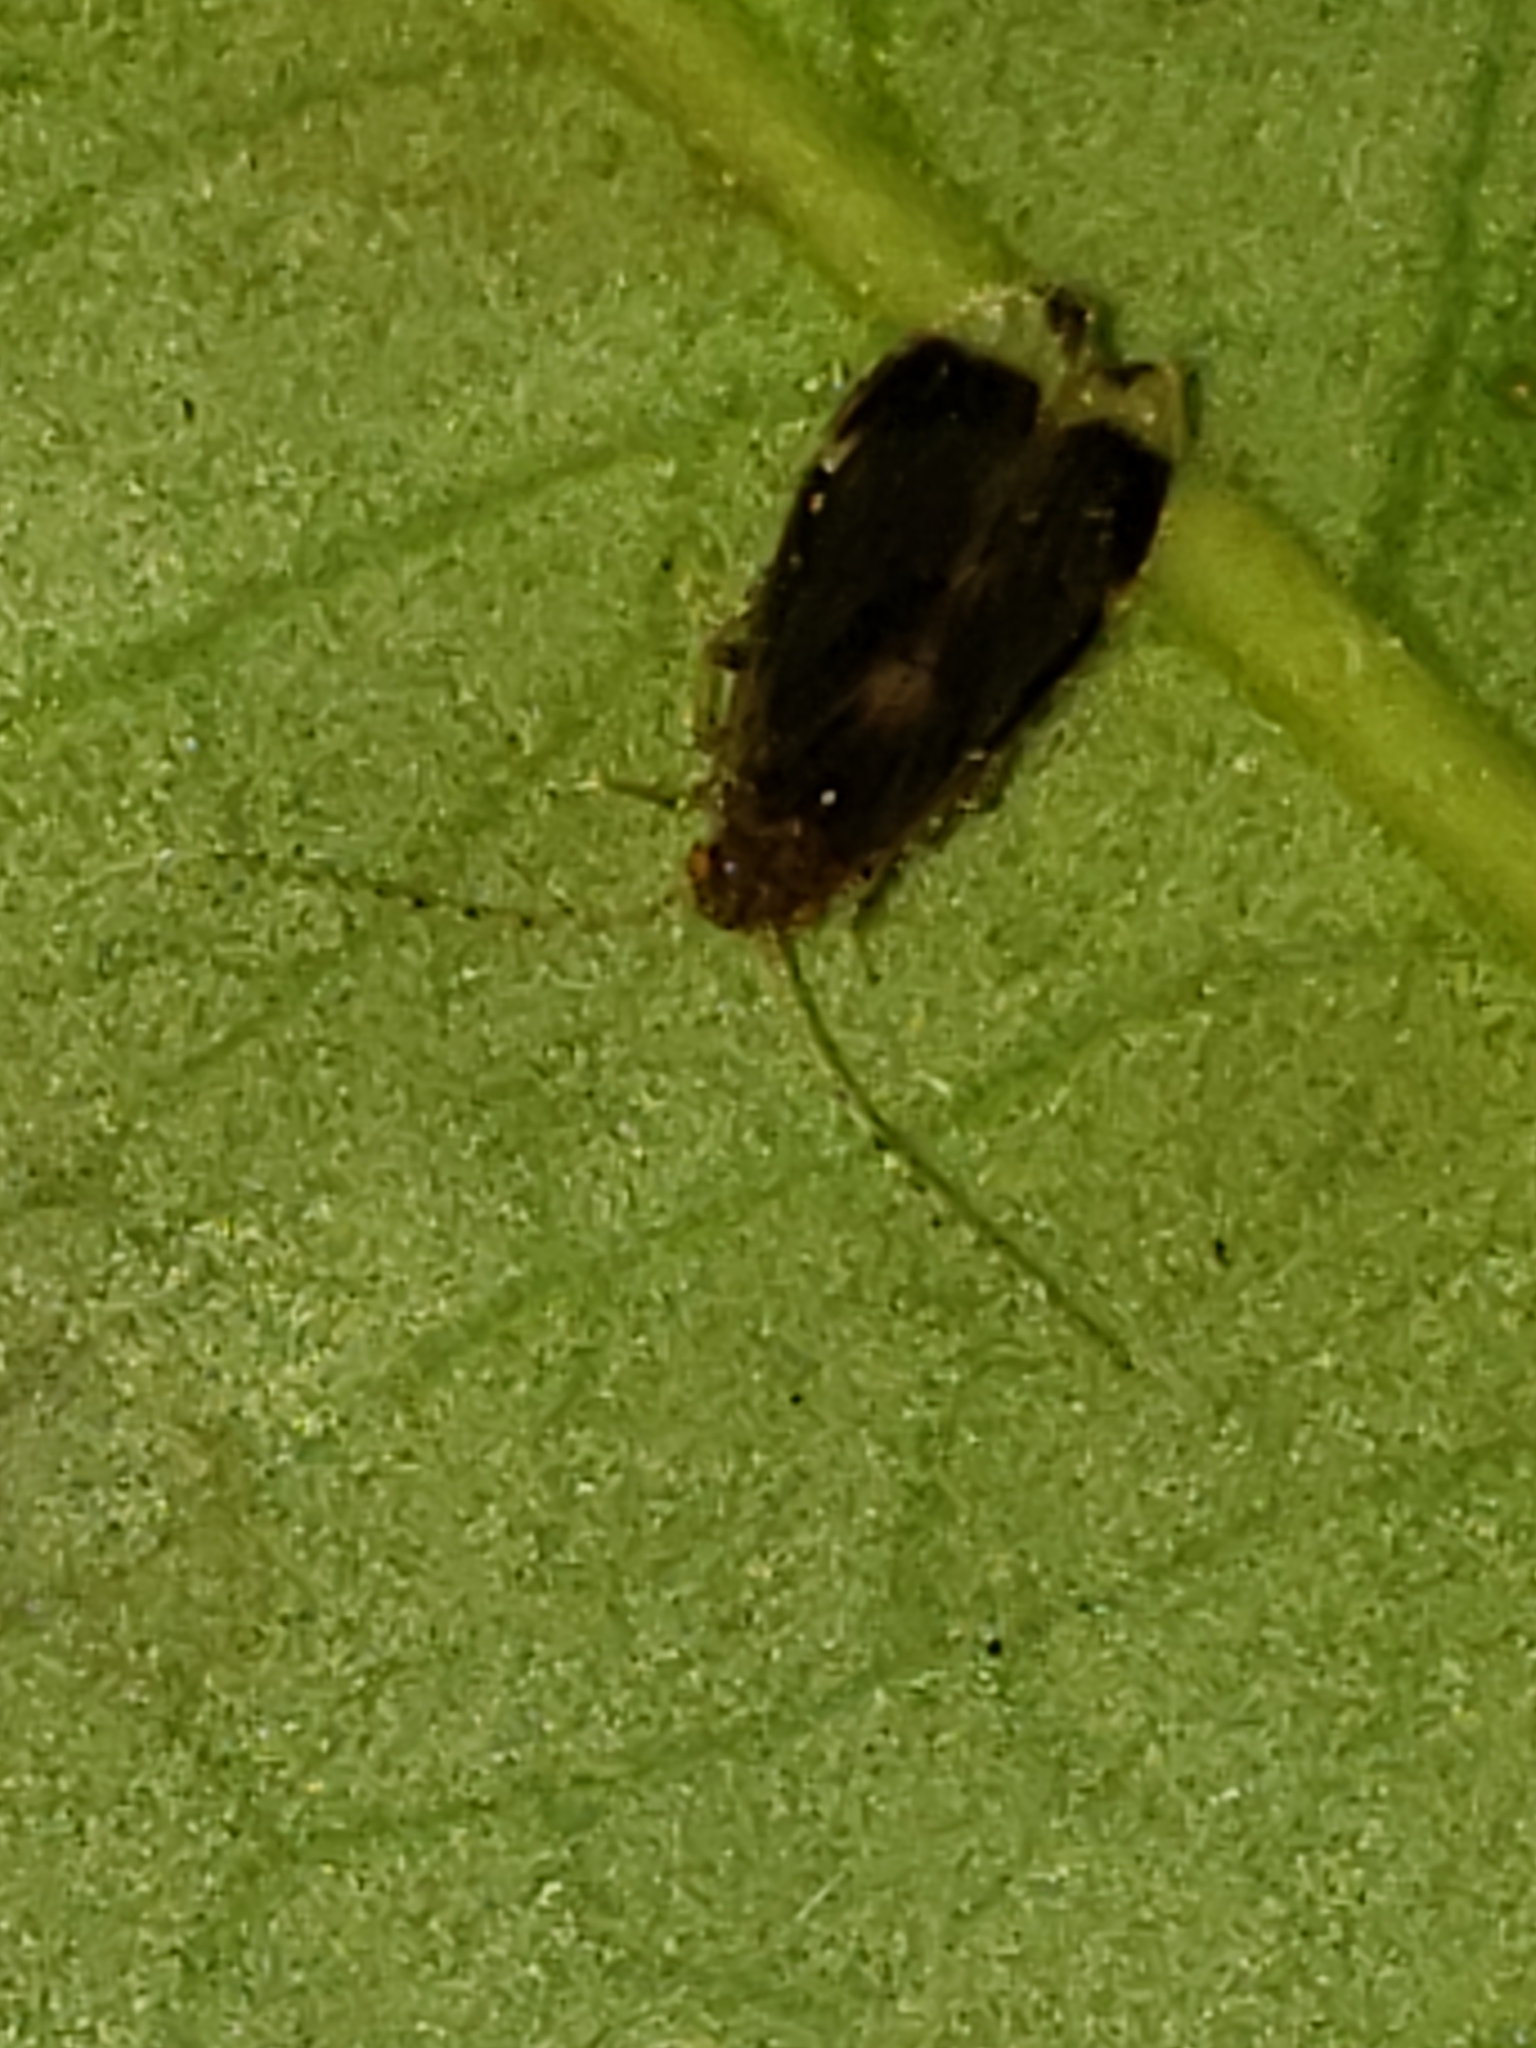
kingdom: Animalia
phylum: Arthropoda
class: Insecta
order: Psocodea
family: Amphipsocidae
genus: Polypsocus
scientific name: Polypsocus corruptus
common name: Corrupt barklouse
